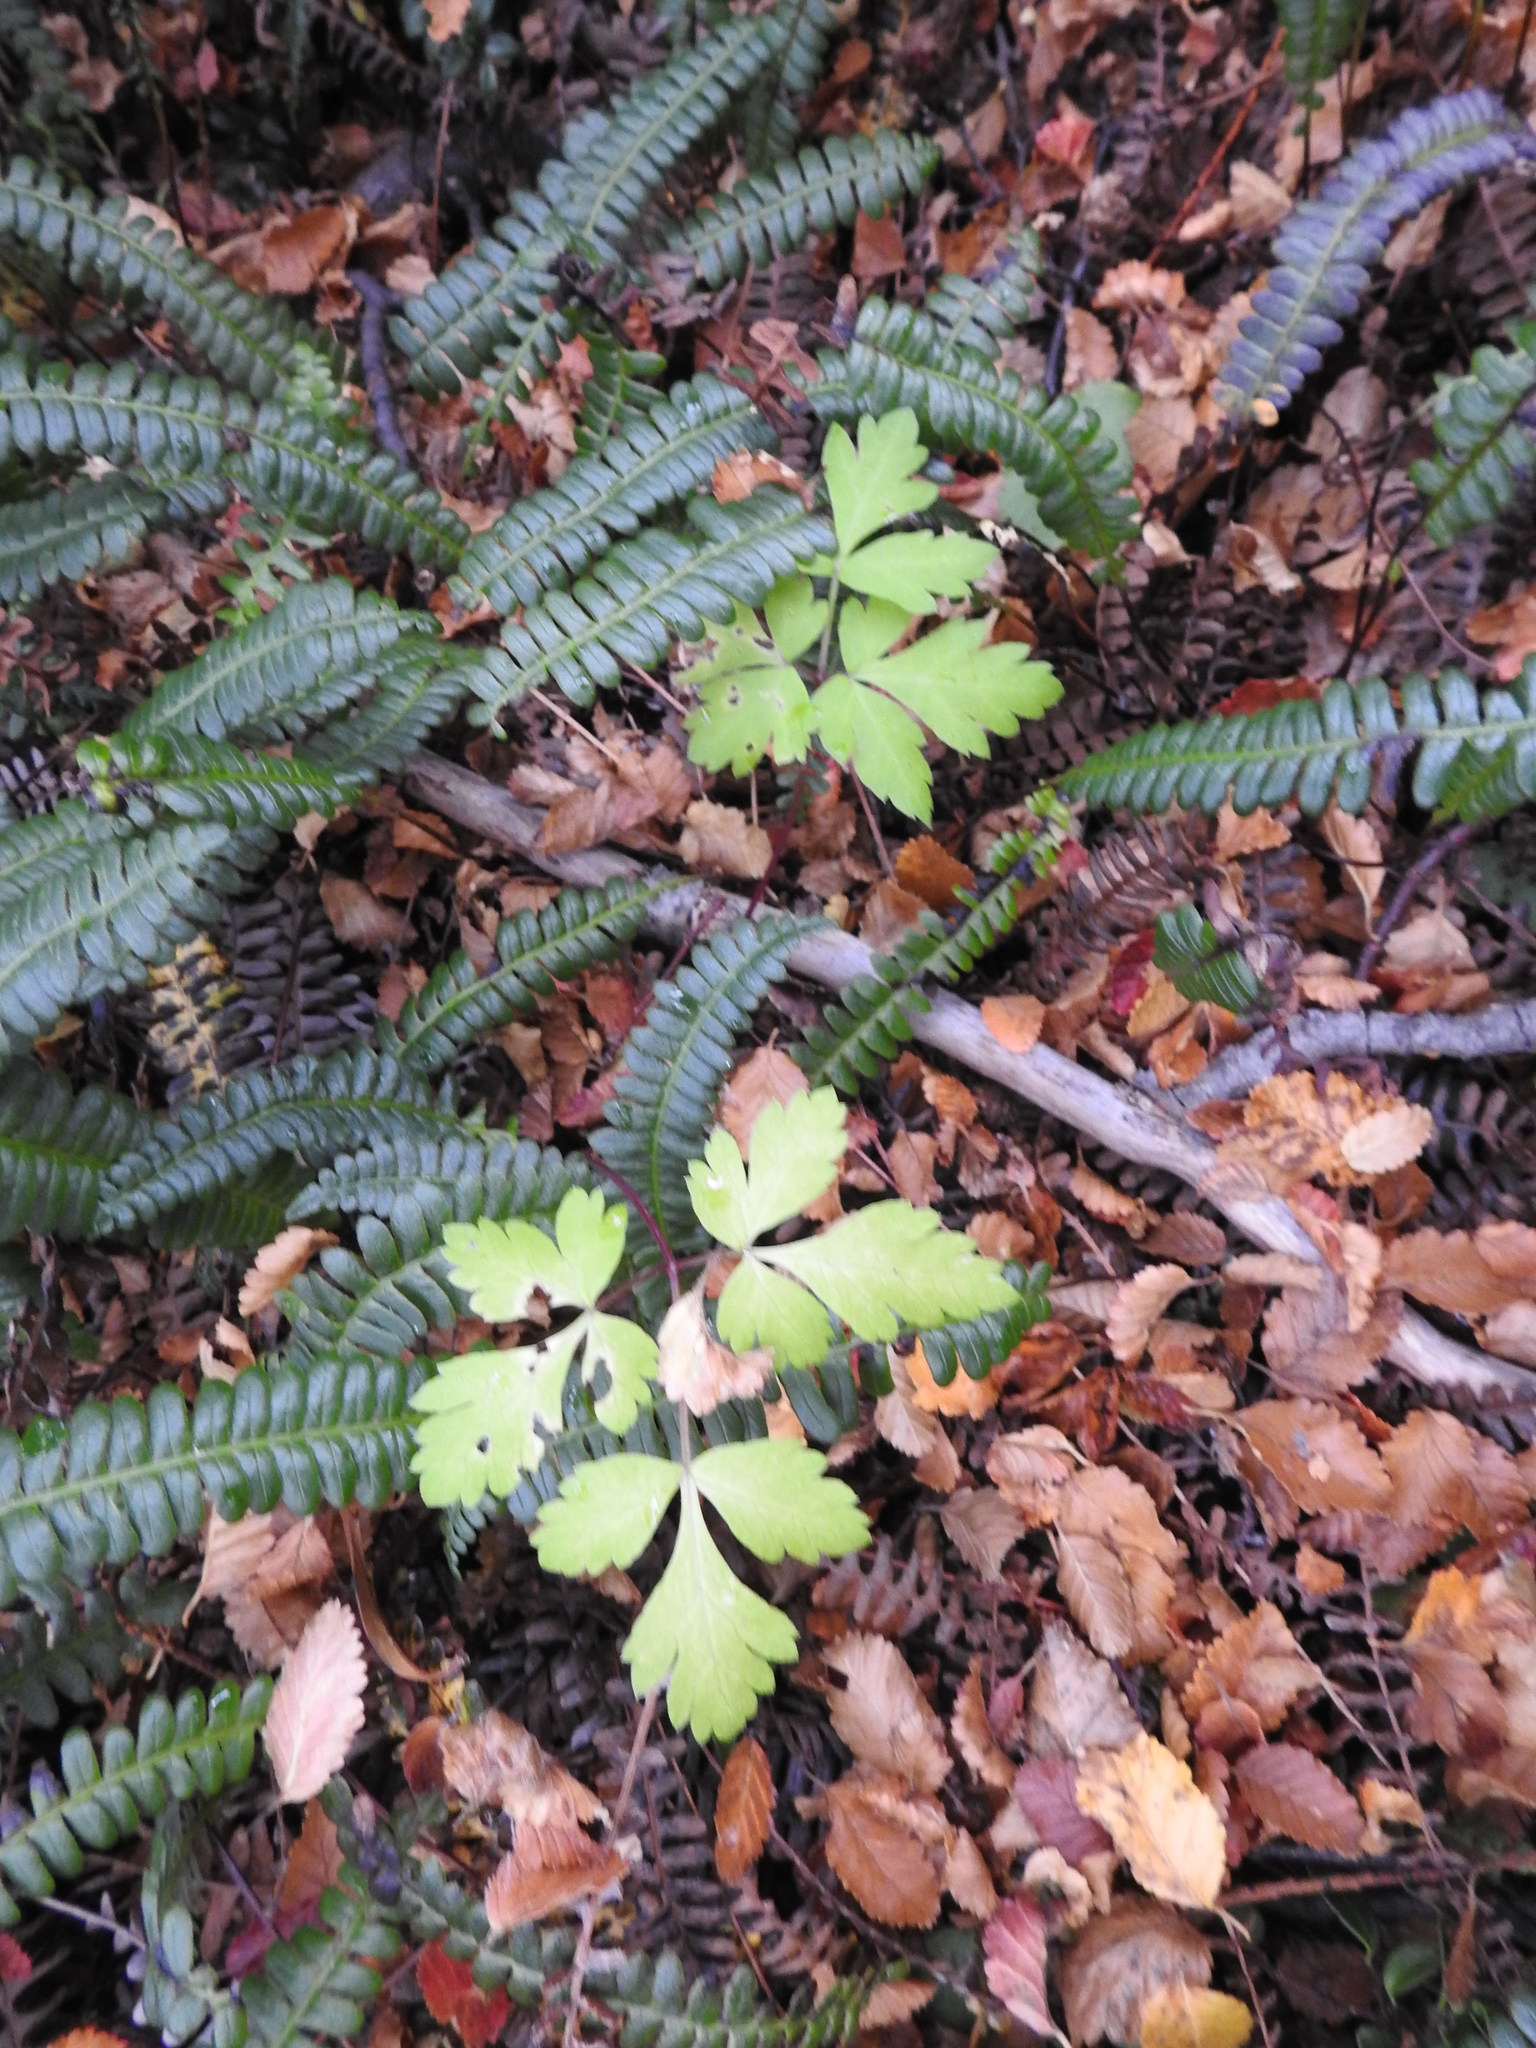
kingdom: Plantae
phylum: Tracheophyta
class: Magnoliopsida
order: Apiales
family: Apiaceae
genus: Osmorhiza
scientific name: Osmorhiza berteroi
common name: Mountain sweet cicely
